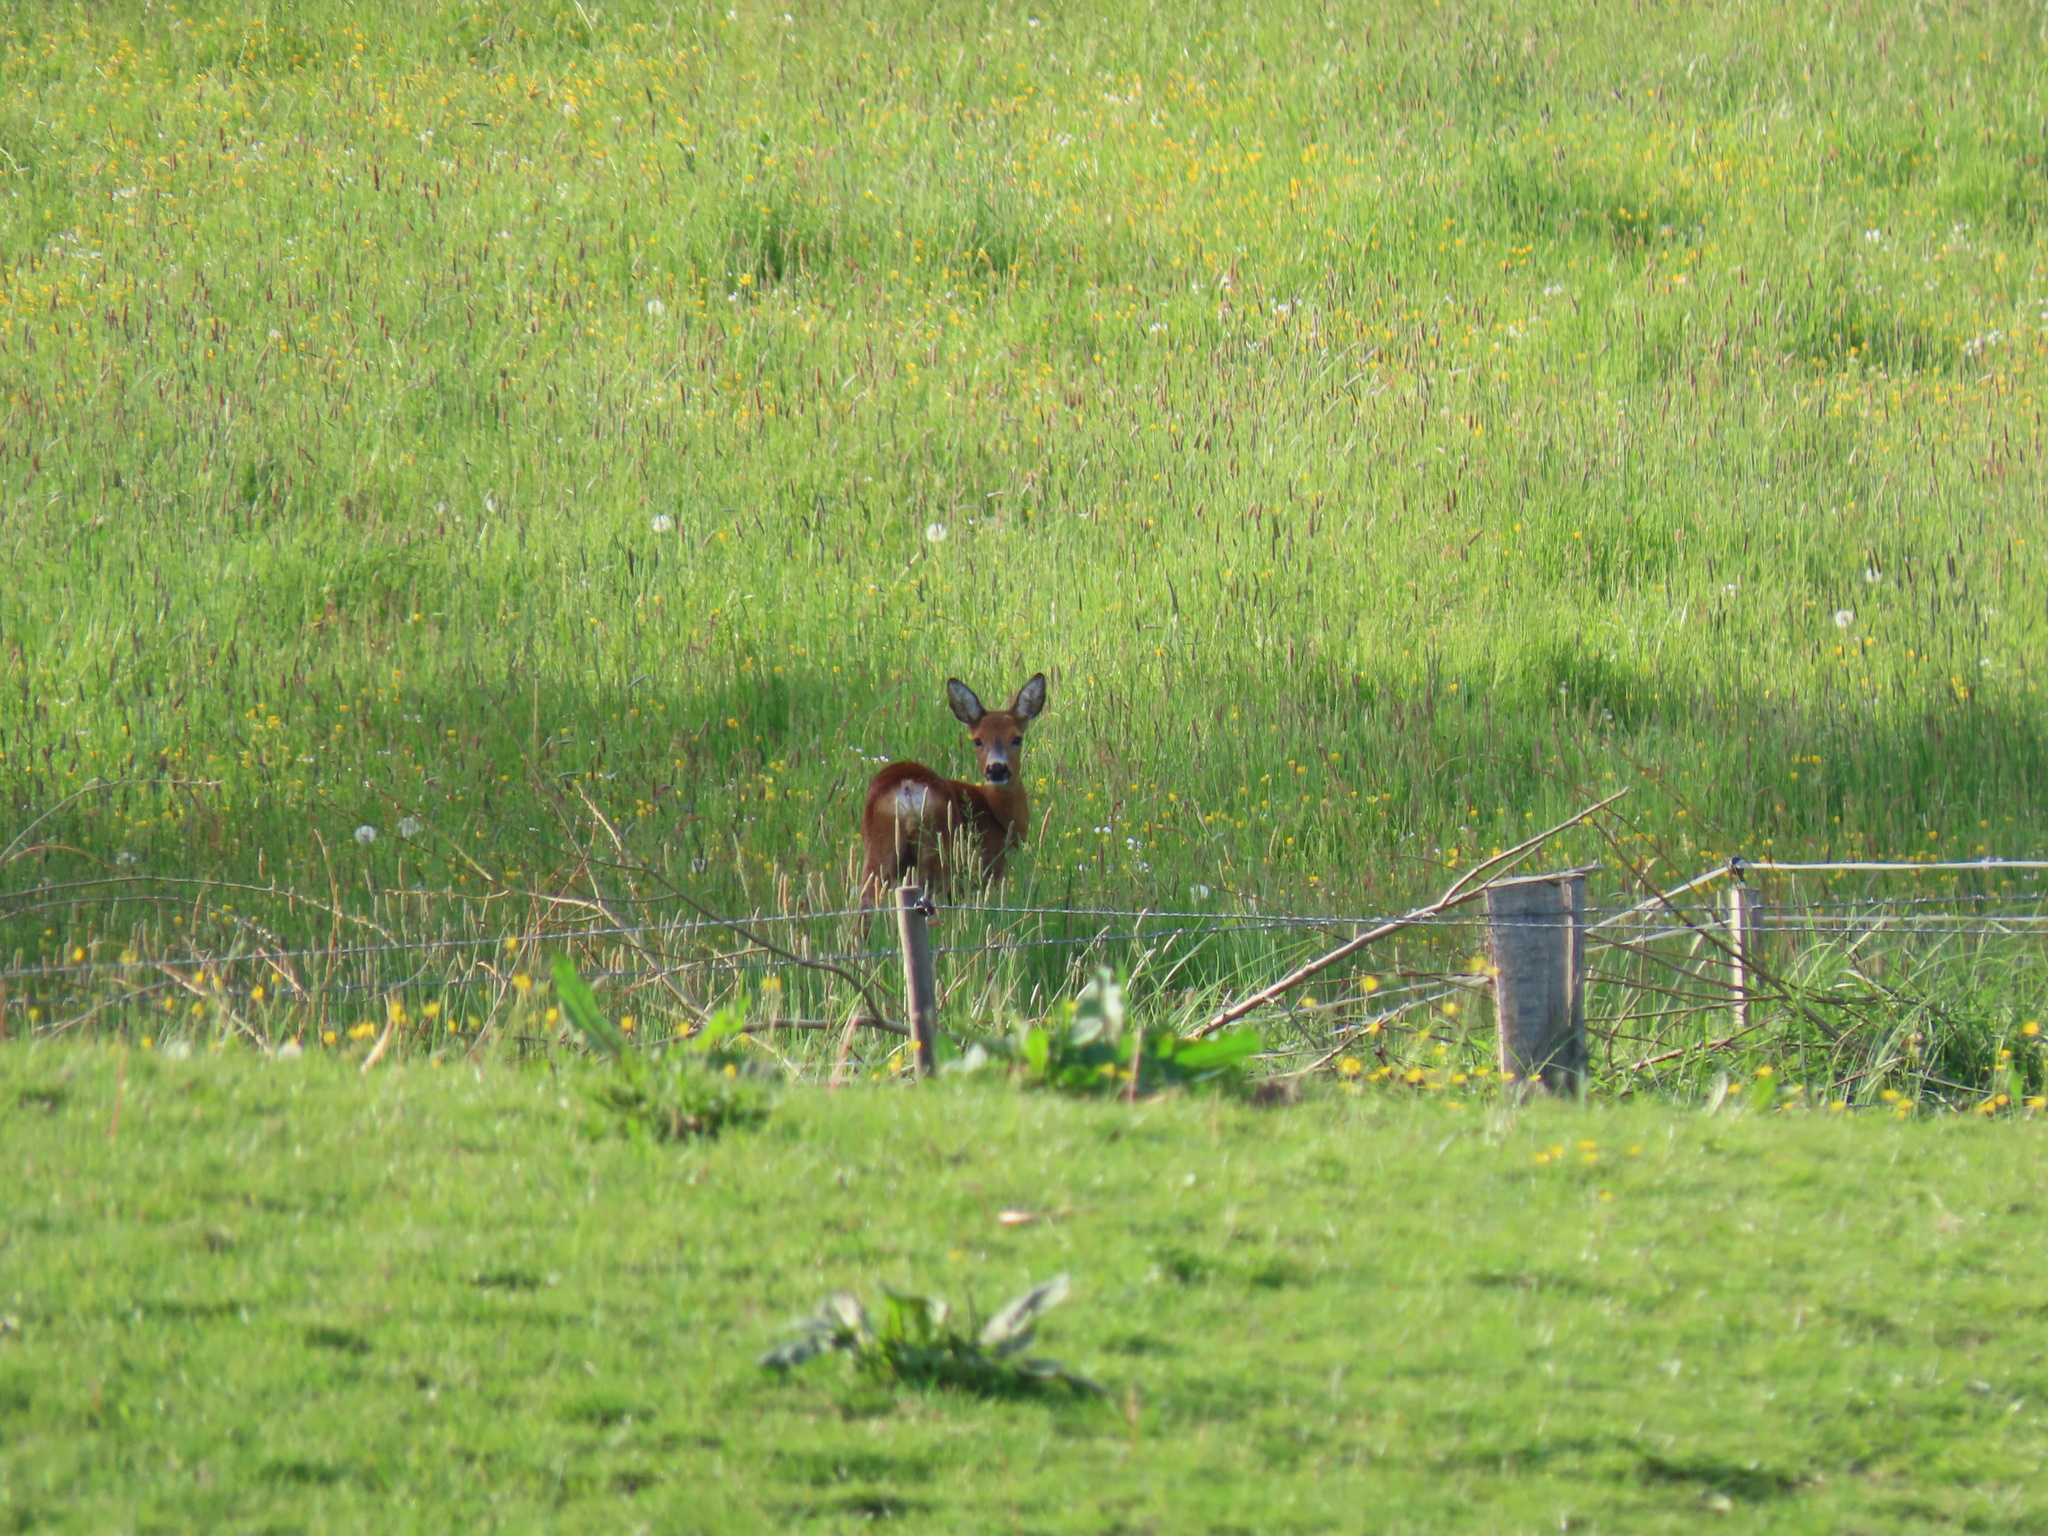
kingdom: Animalia
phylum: Chordata
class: Mammalia
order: Artiodactyla
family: Cervidae
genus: Capreolus
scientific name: Capreolus capreolus
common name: Western roe deer
